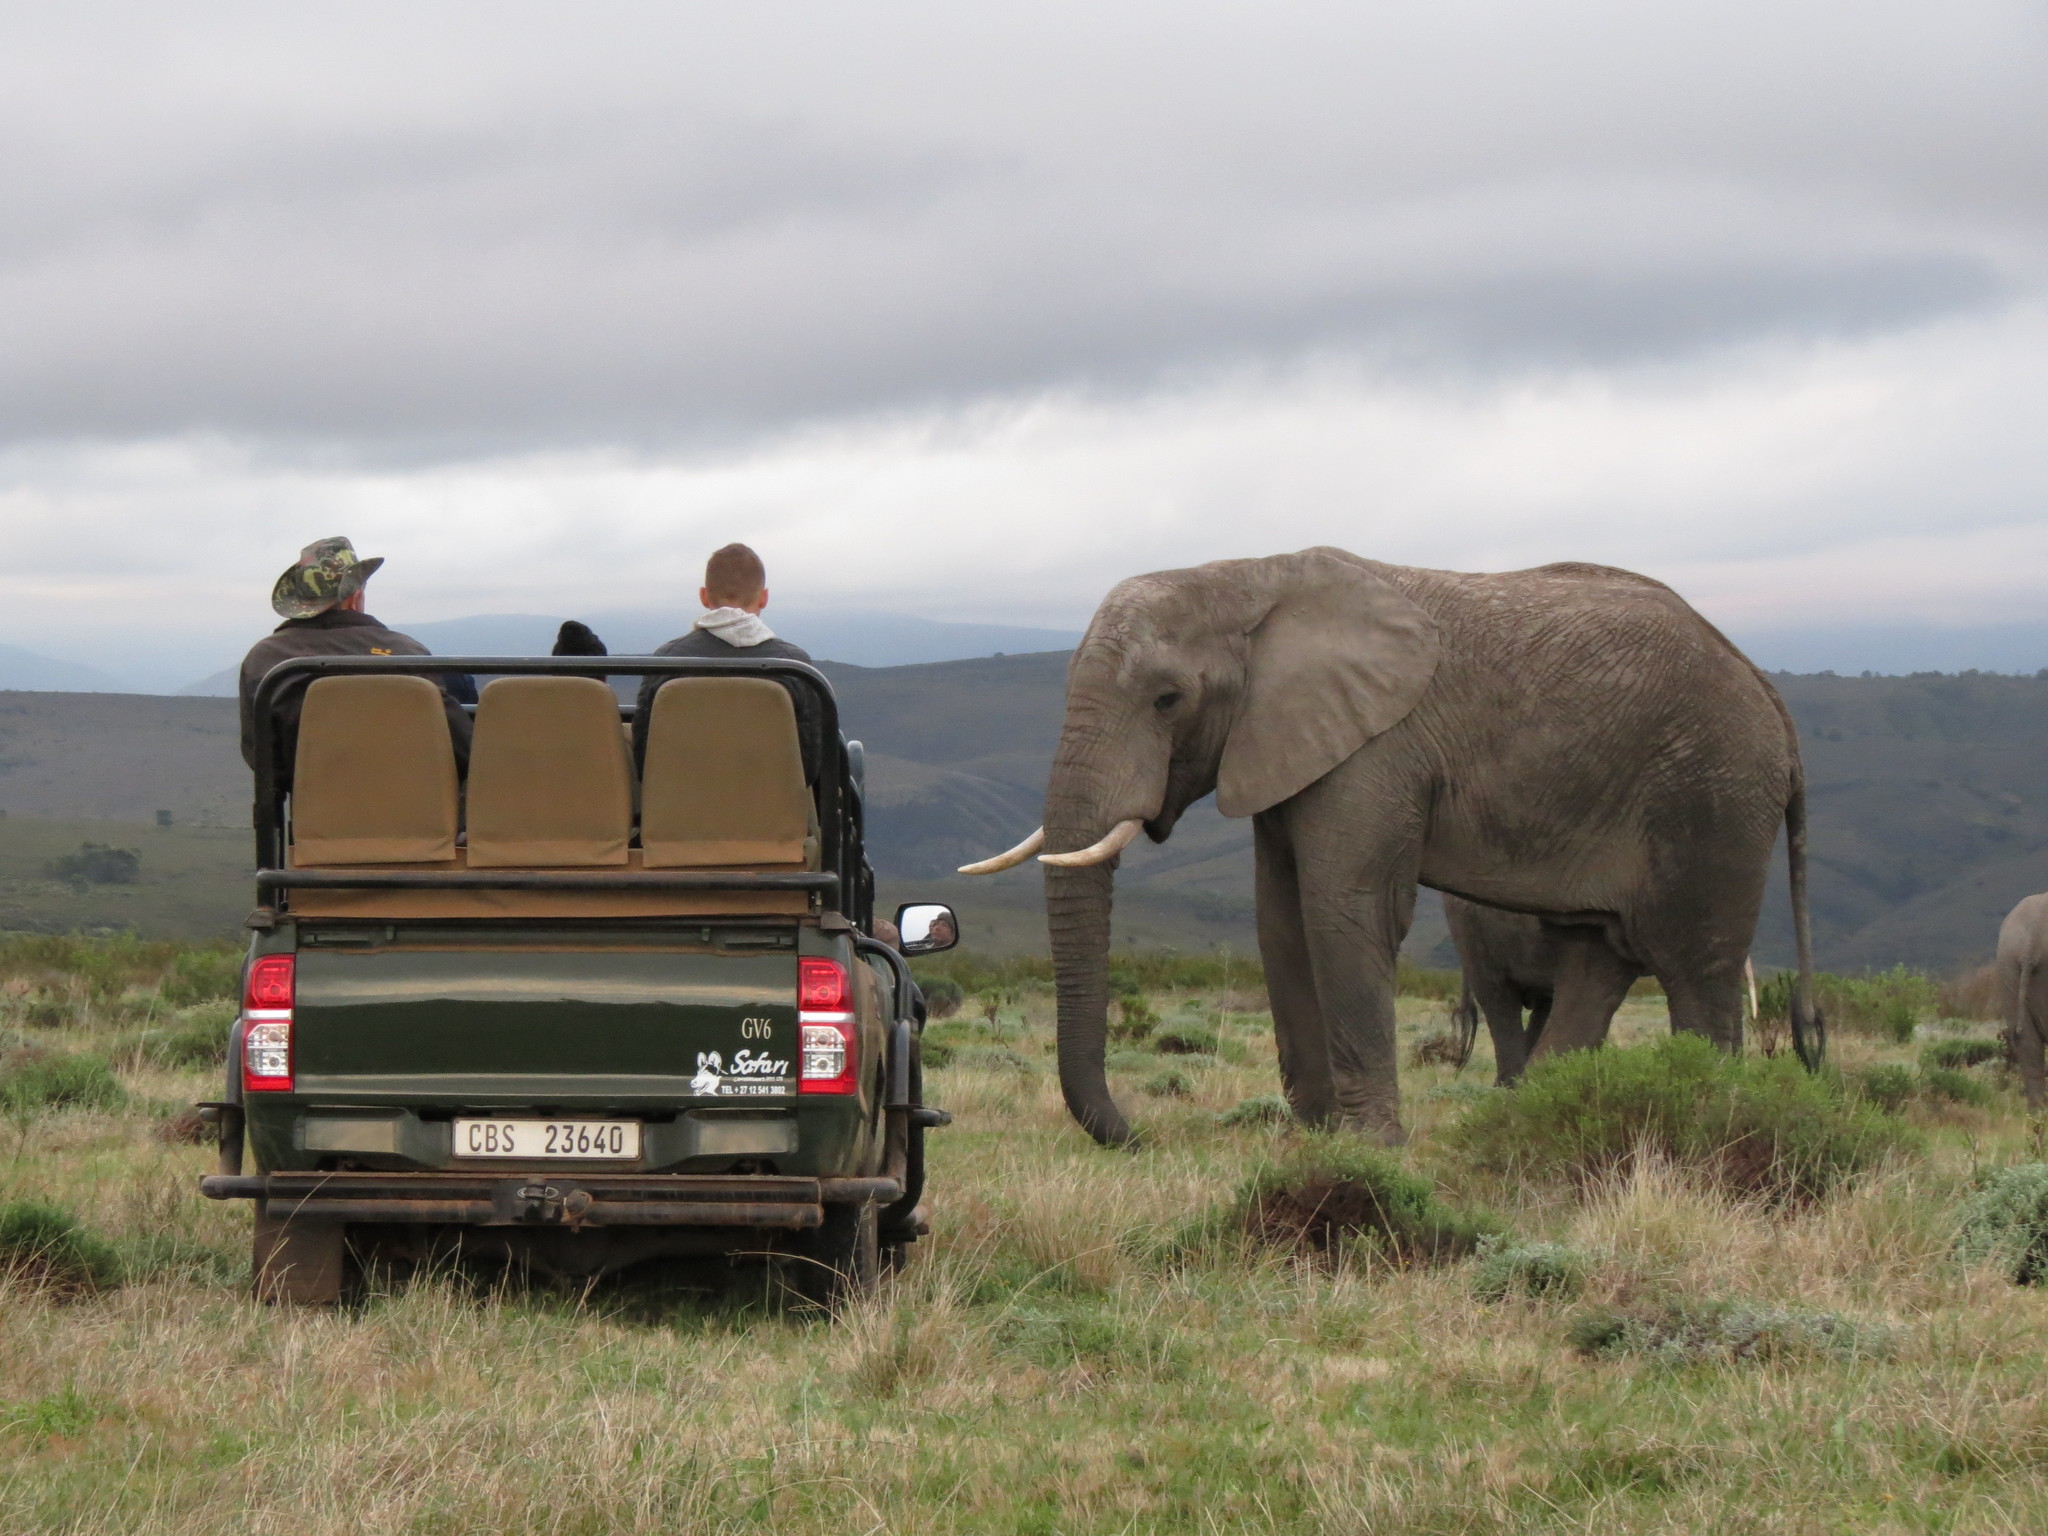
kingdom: Animalia
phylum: Chordata
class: Mammalia
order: Proboscidea
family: Elephantidae
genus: Loxodonta
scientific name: Loxodonta africana
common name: African elephant
